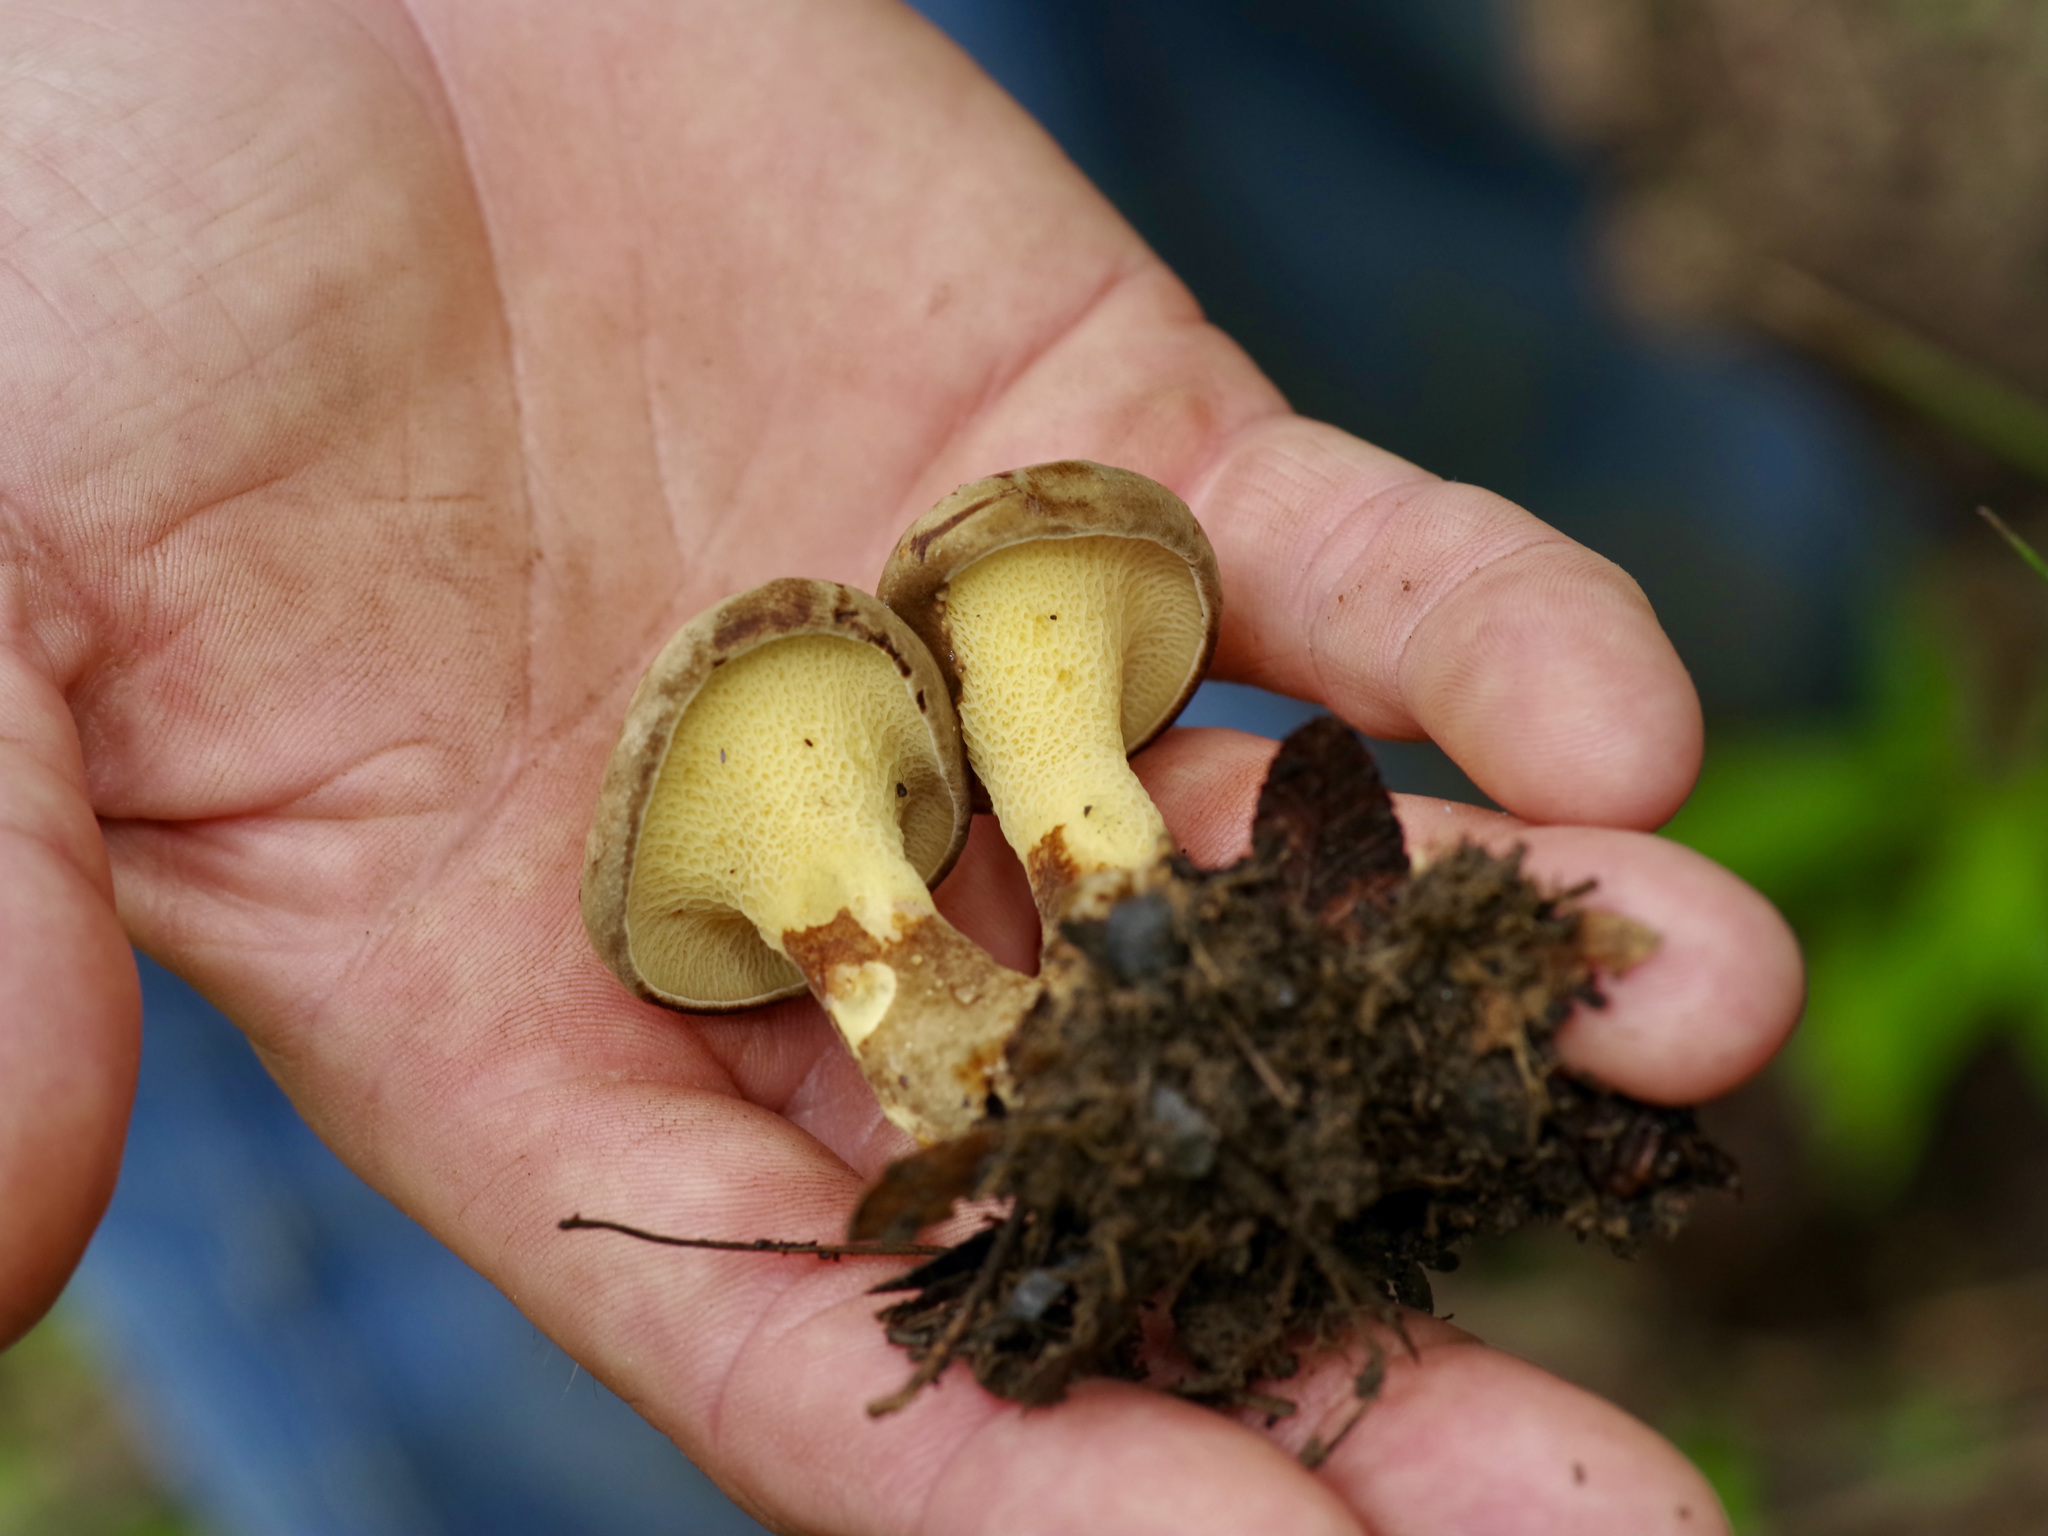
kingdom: Fungi
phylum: Basidiomycota
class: Agaricomycetes
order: Boletales
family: Boletinellaceae
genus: Boletinellus
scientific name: Boletinellus merulioides
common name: Ash tree bolete
